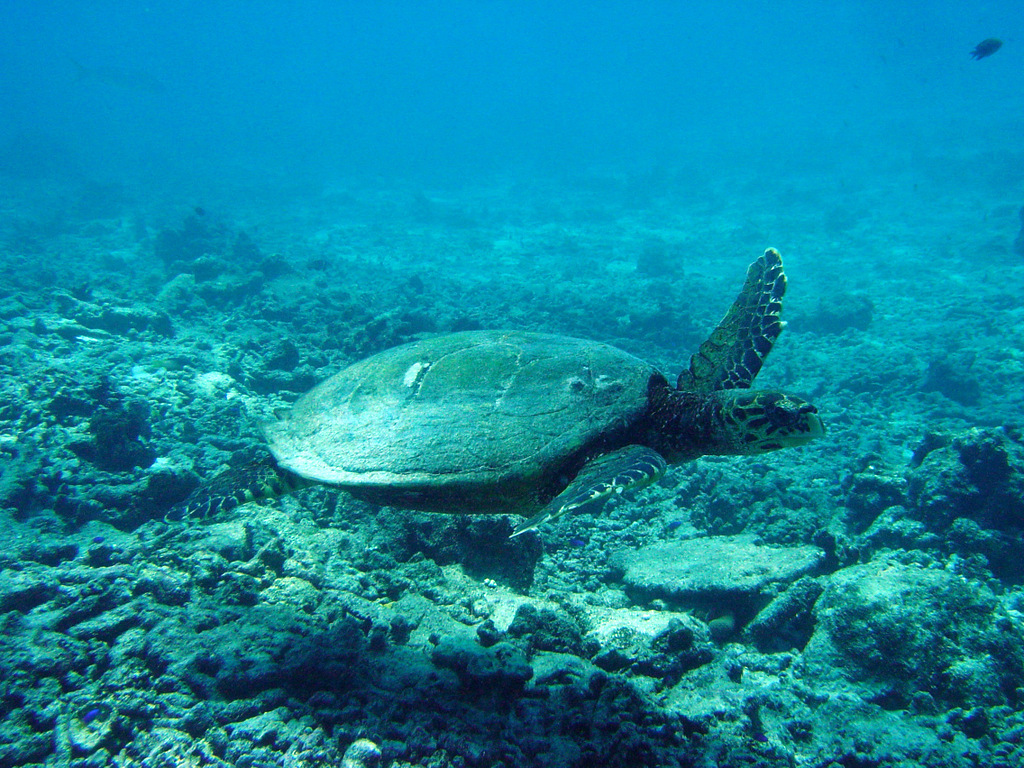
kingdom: Animalia
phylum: Chordata
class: Testudines
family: Cheloniidae
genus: Eretmochelys
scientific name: Eretmochelys imbricata
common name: Hawksbill turtle
